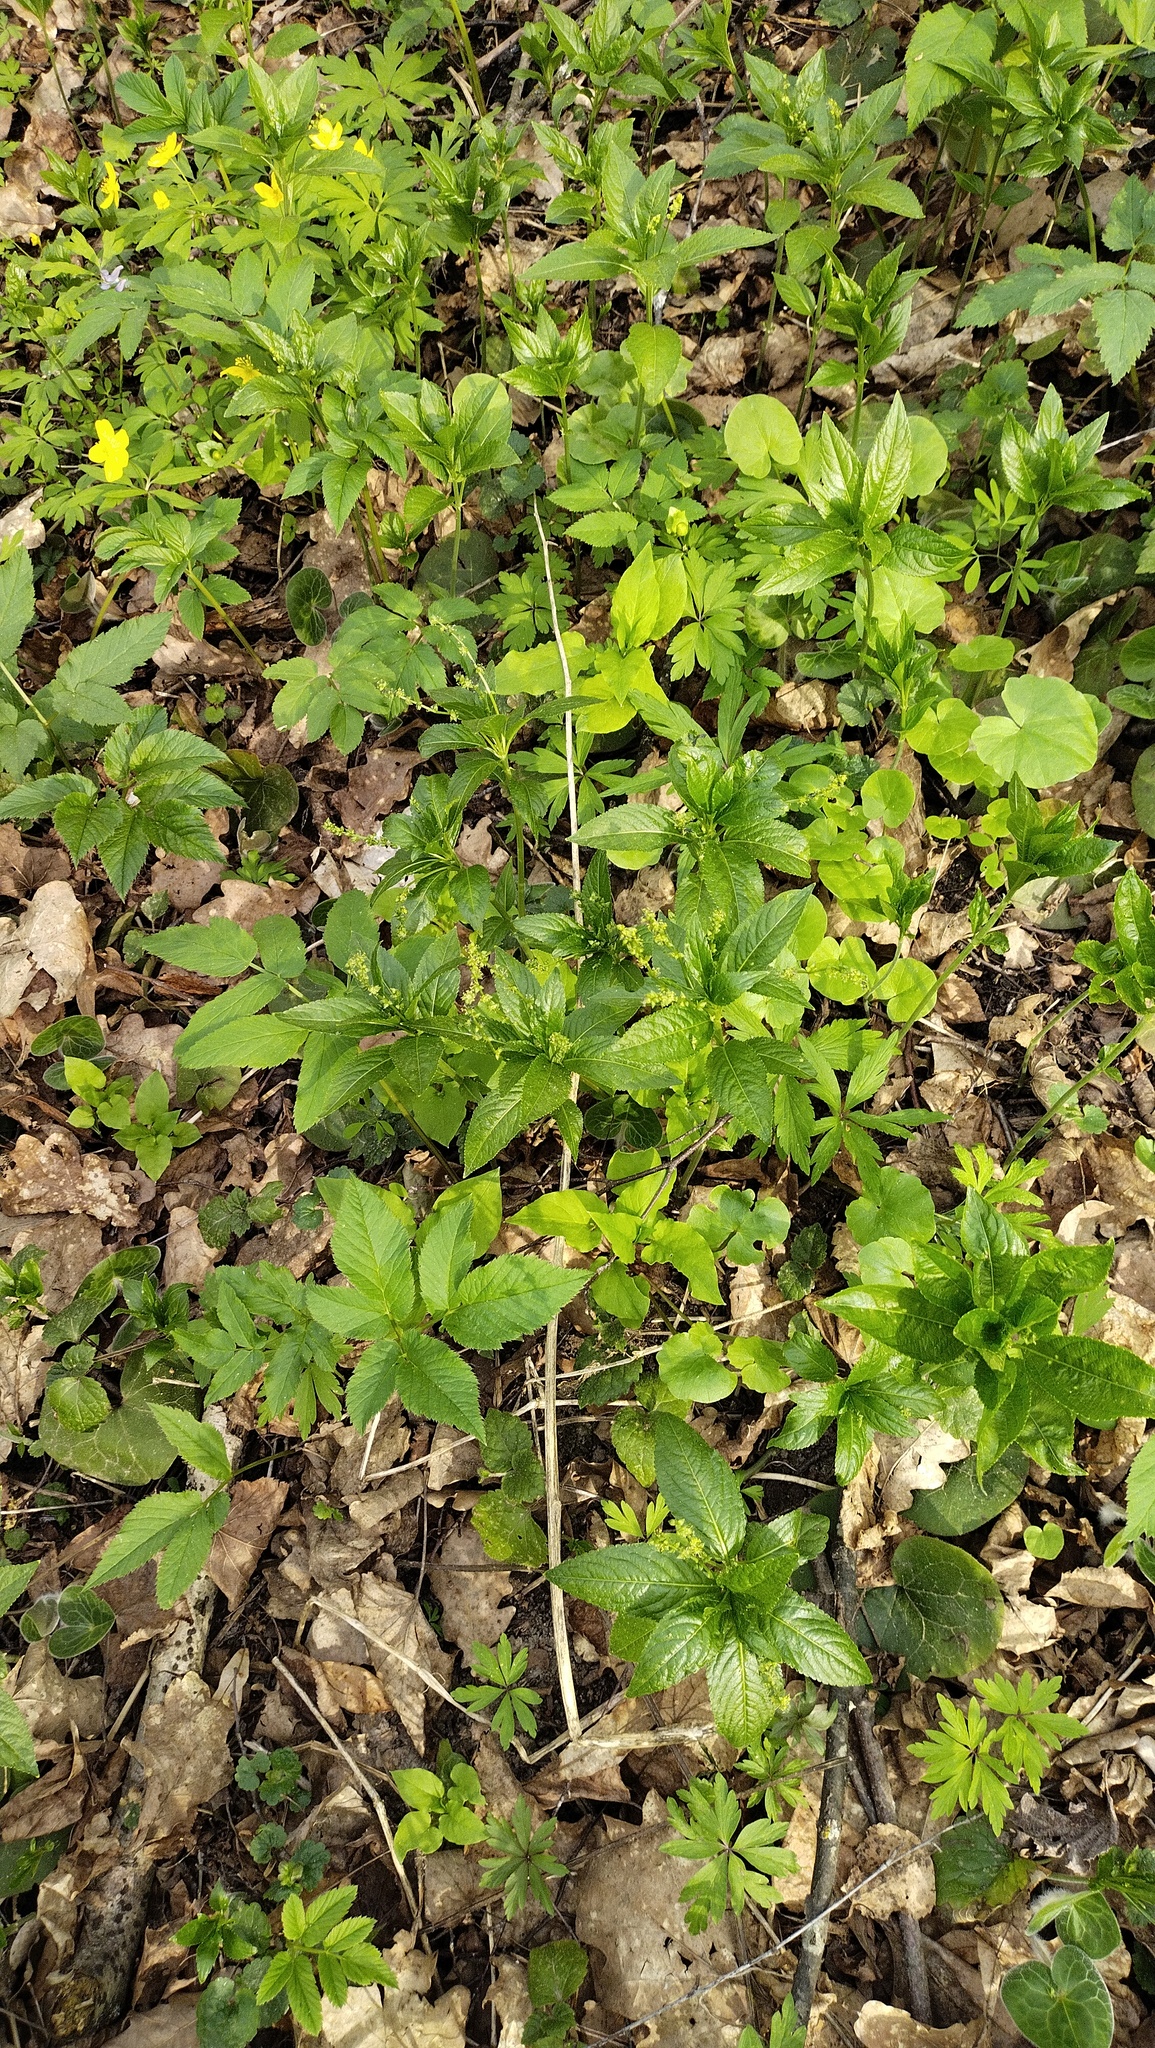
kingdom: Plantae
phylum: Tracheophyta
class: Magnoliopsida
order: Malpighiales
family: Euphorbiaceae
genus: Mercurialis
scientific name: Mercurialis perennis
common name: Dog mercury
